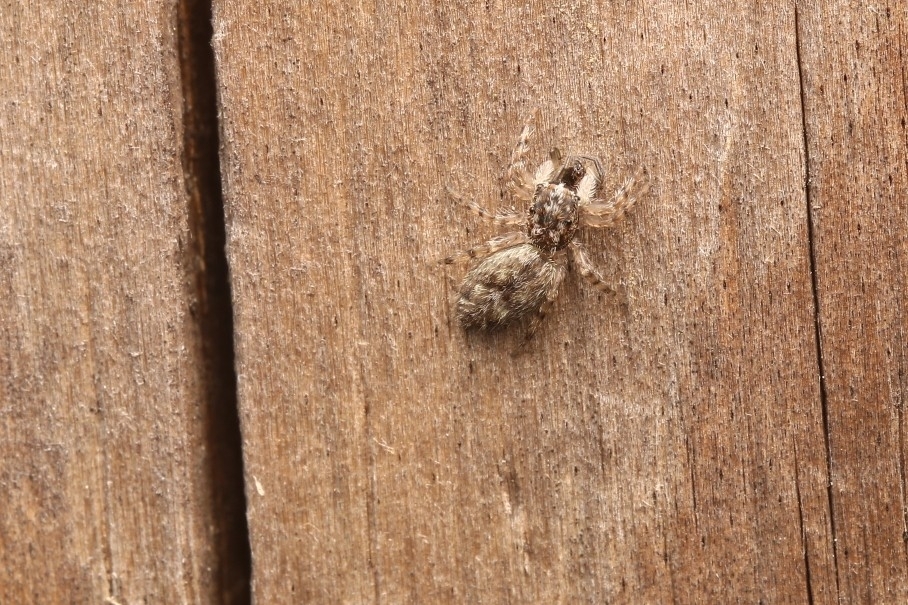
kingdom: Animalia
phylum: Arthropoda
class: Arachnida
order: Araneae
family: Salticidae
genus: Platycryptus
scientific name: Platycryptus undatus
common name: Tan jumping spider
